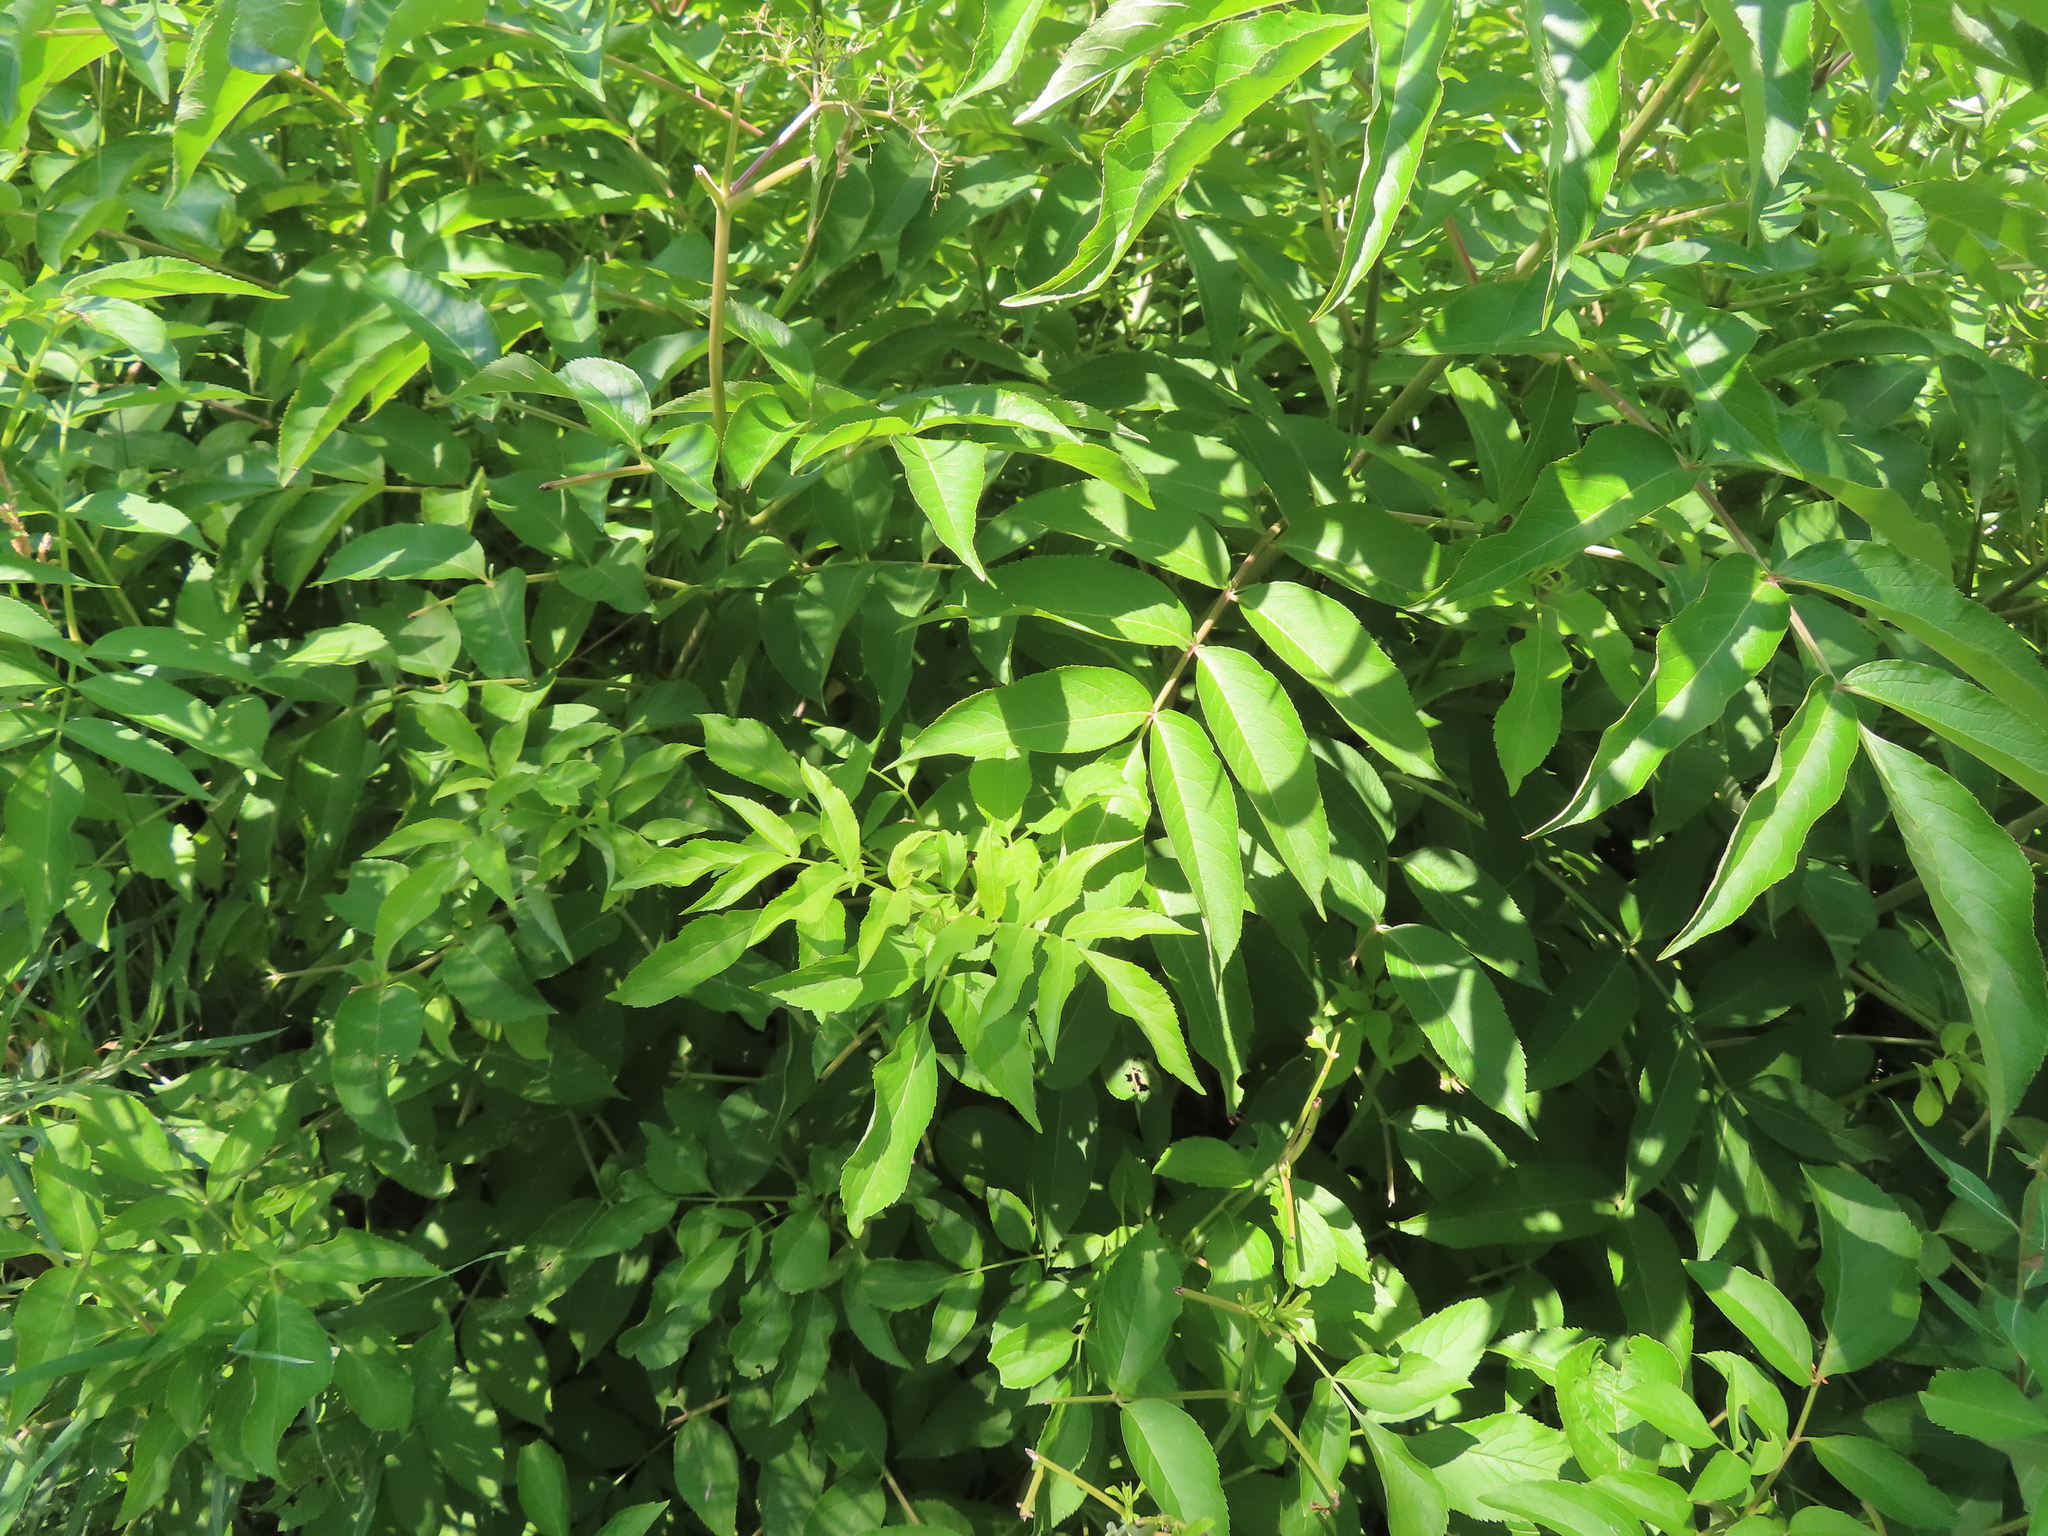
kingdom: Plantae
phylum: Tracheophyta
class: Magnoliopsida
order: Dipsacales
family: Viburnaceae
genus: Sambucus
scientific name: Sambucus canadensis
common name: American elder
